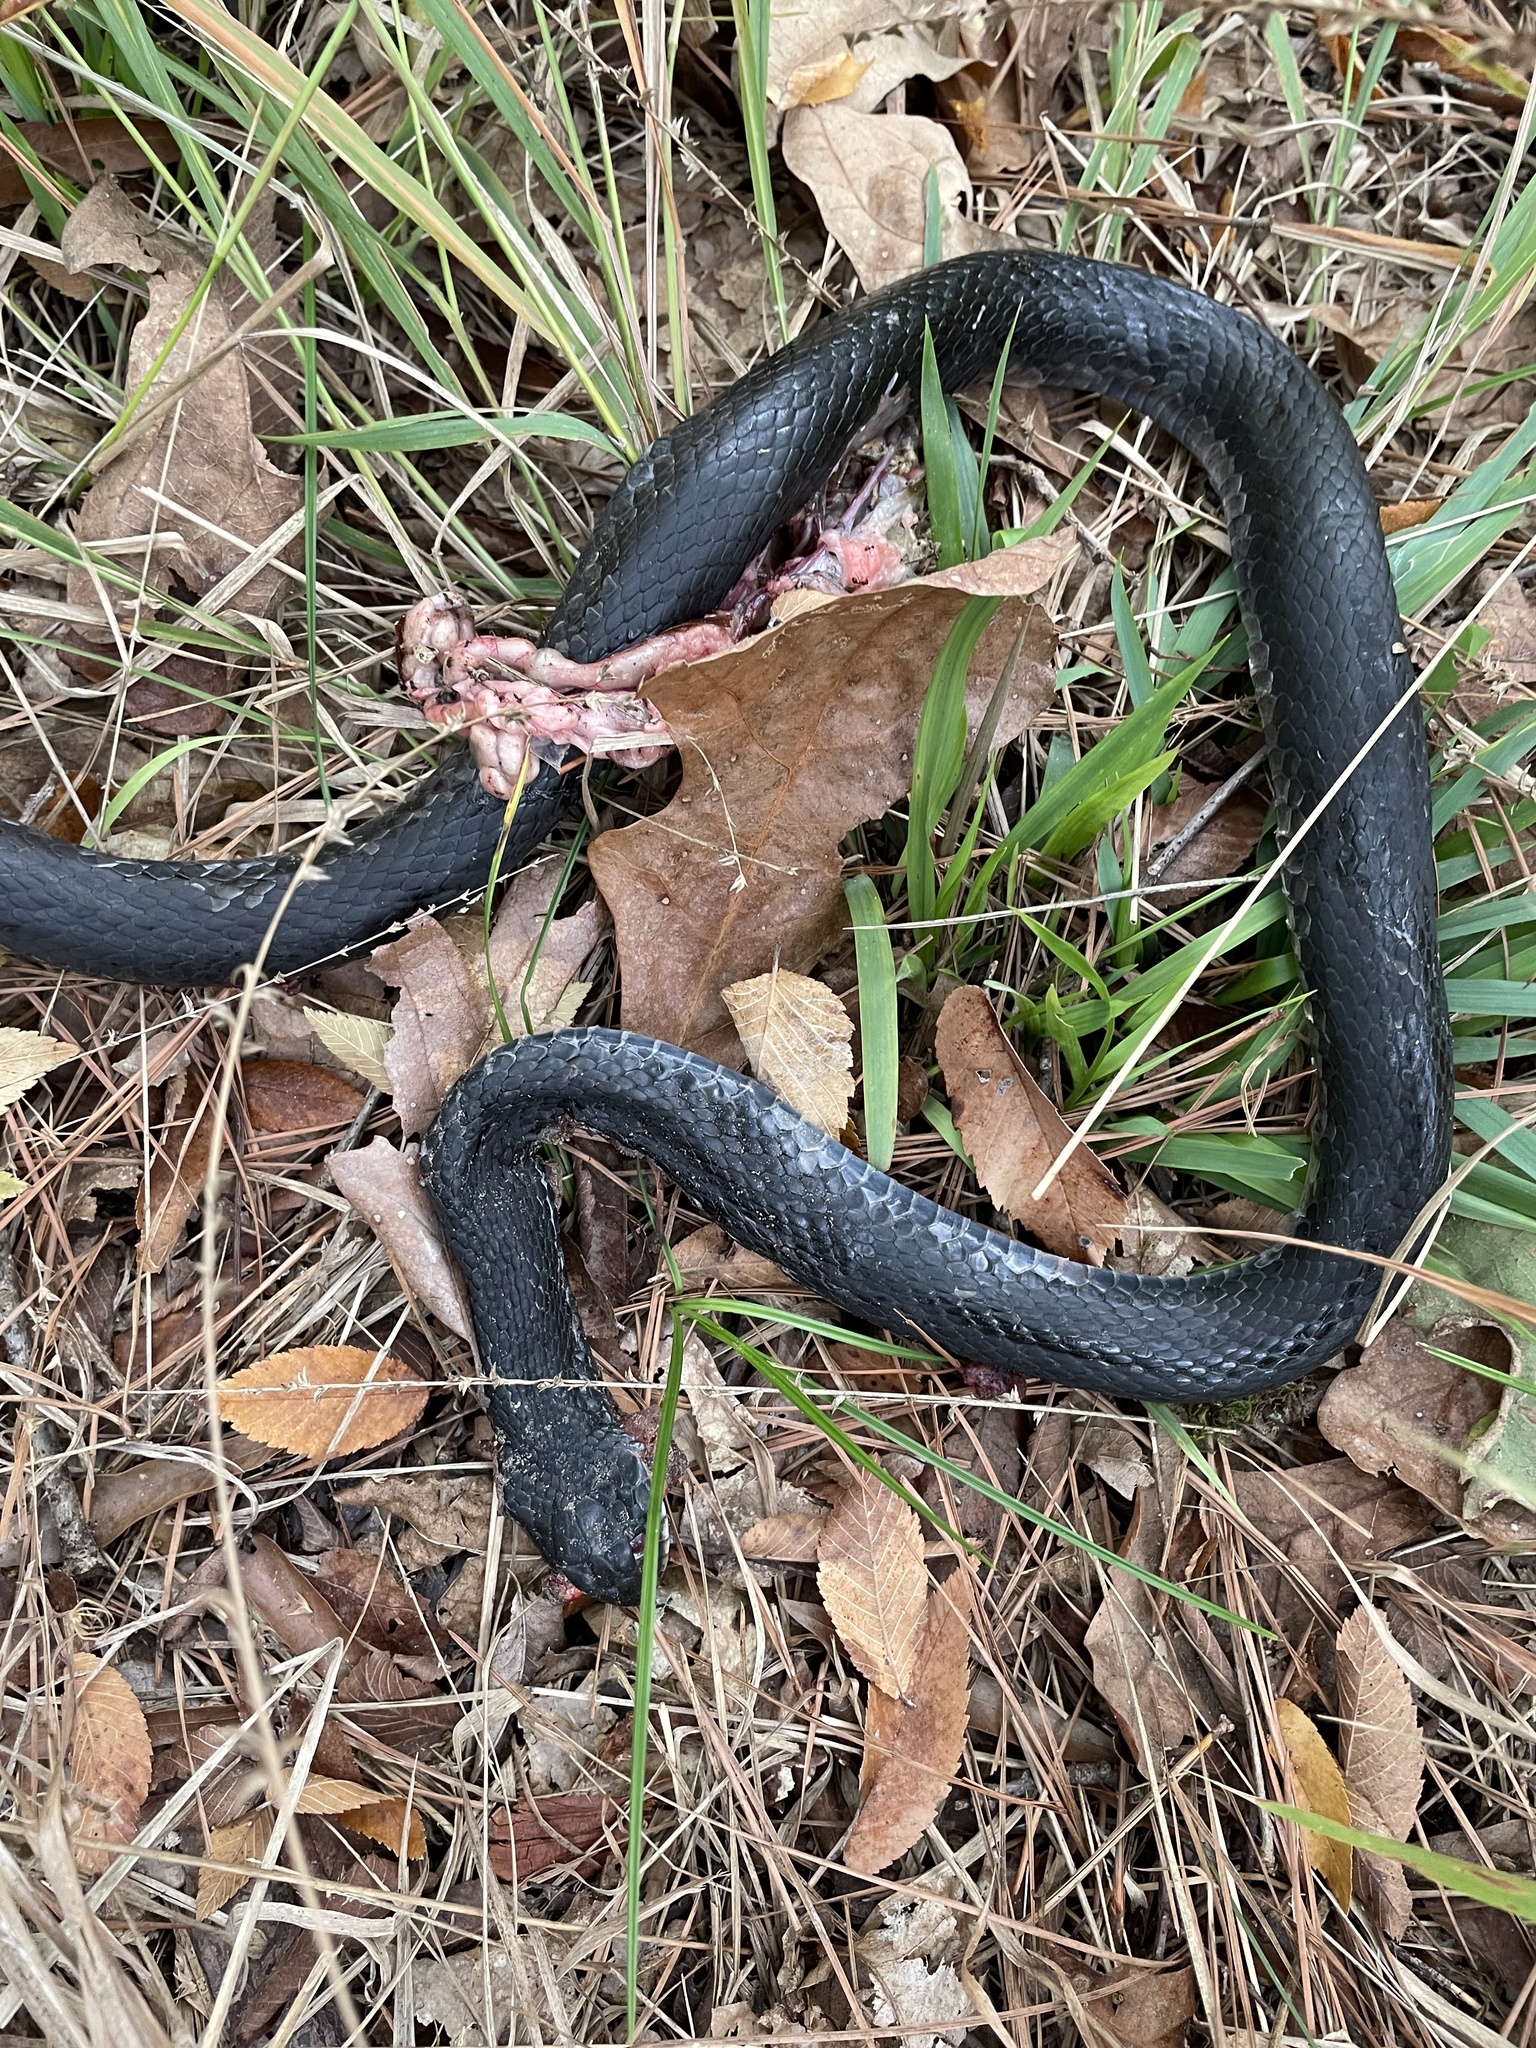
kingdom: Animalia
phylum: Chordata
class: Squamata
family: Colubridae
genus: Coluber
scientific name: Coluber constrictor
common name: Eastern racer
